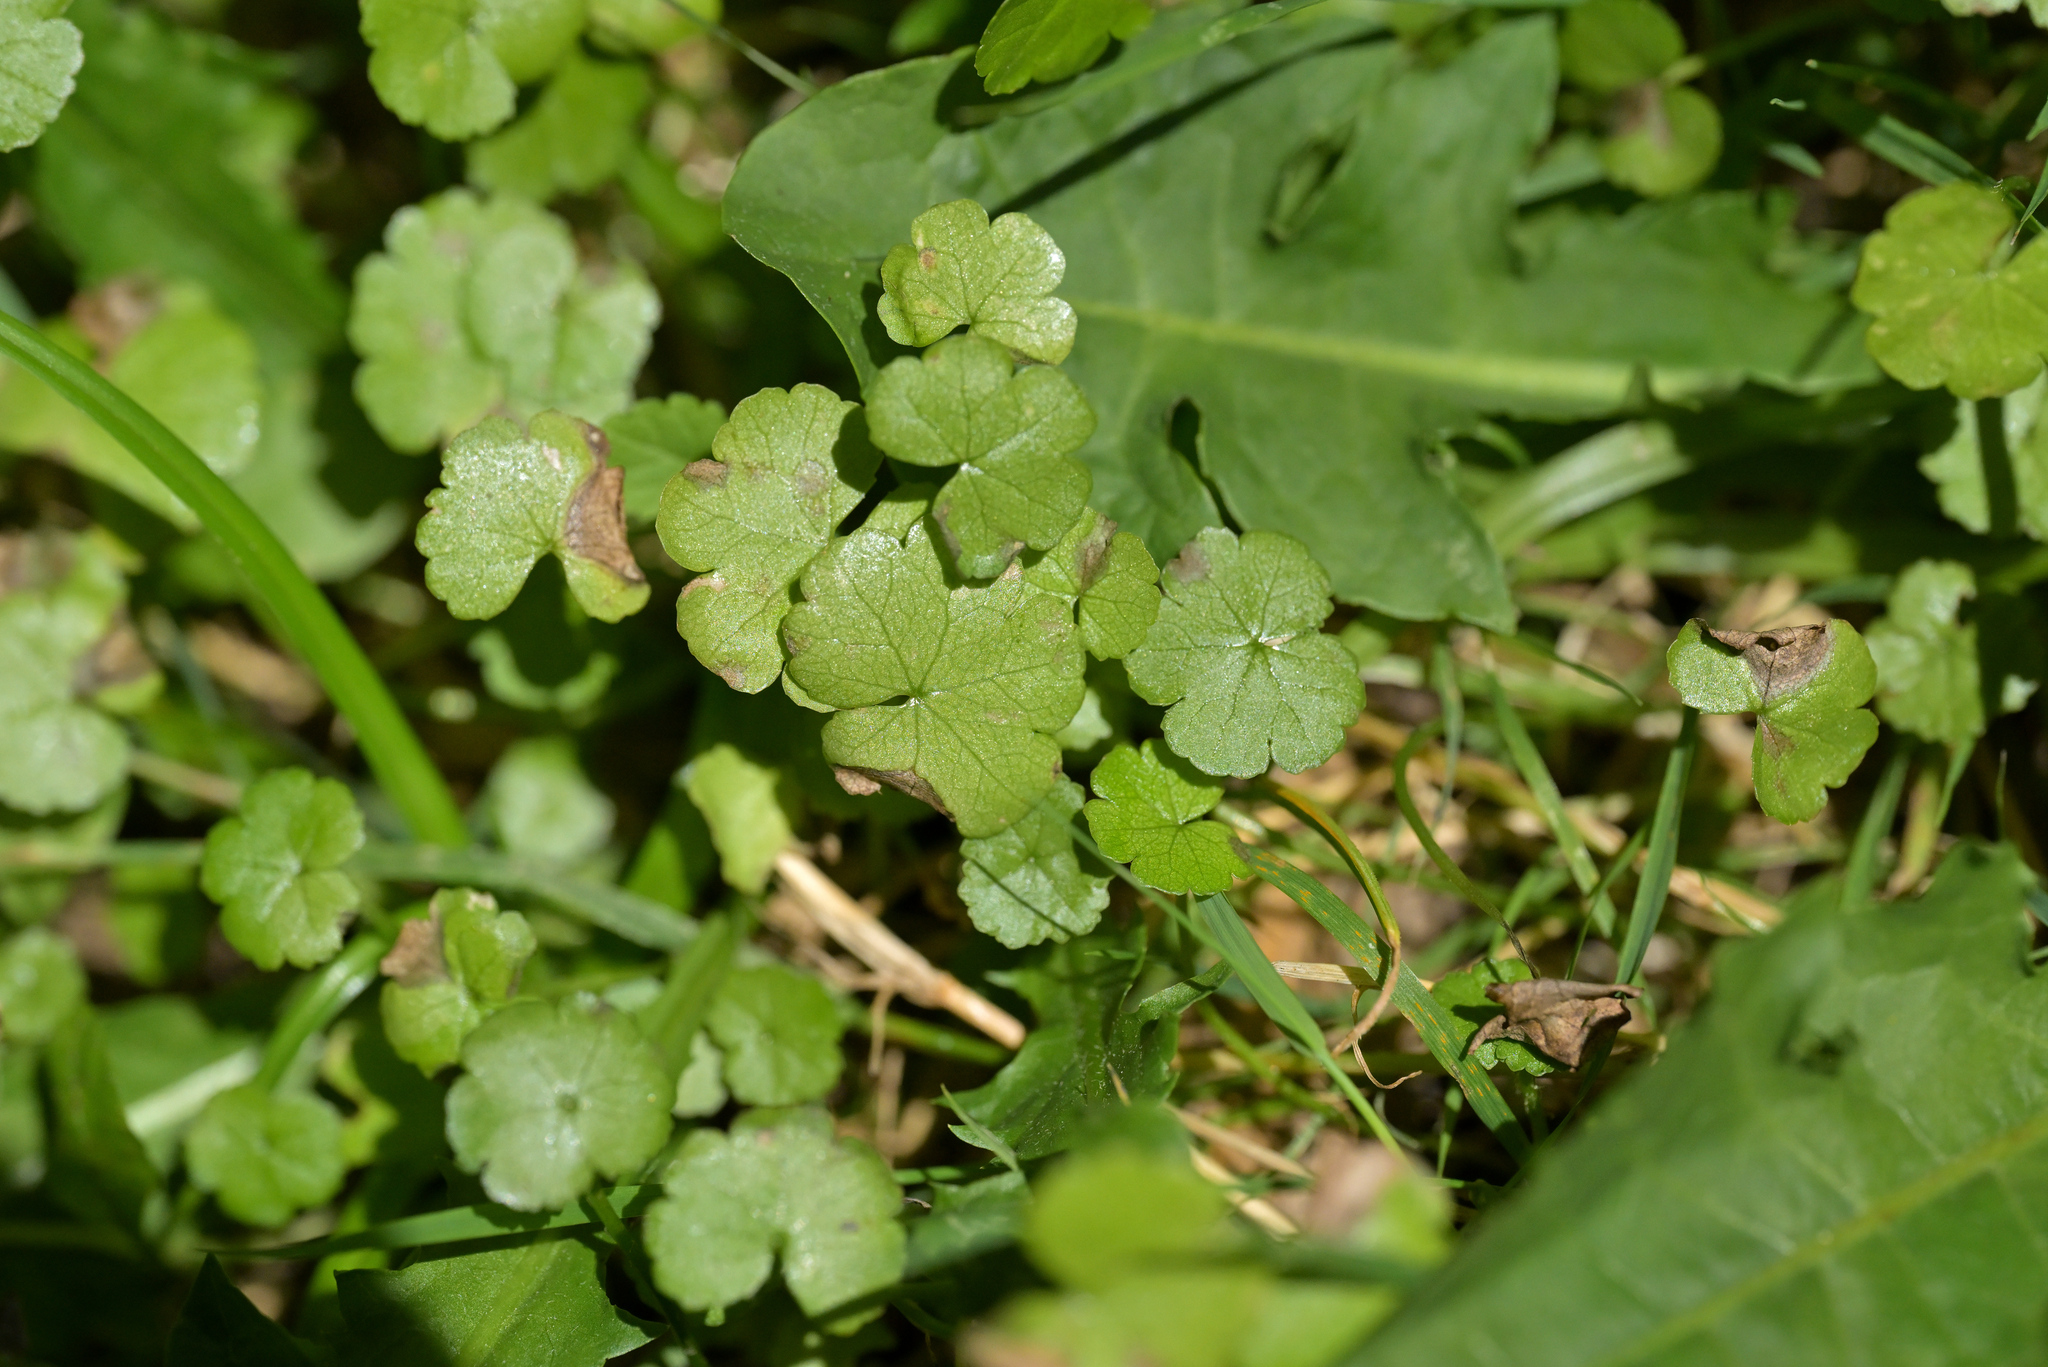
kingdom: Plantae
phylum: Tracheophyta
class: Magnoliopsida
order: Apiales
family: Araliaceae
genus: Hydrocotyle
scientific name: Hydrocotyle heteromeria
